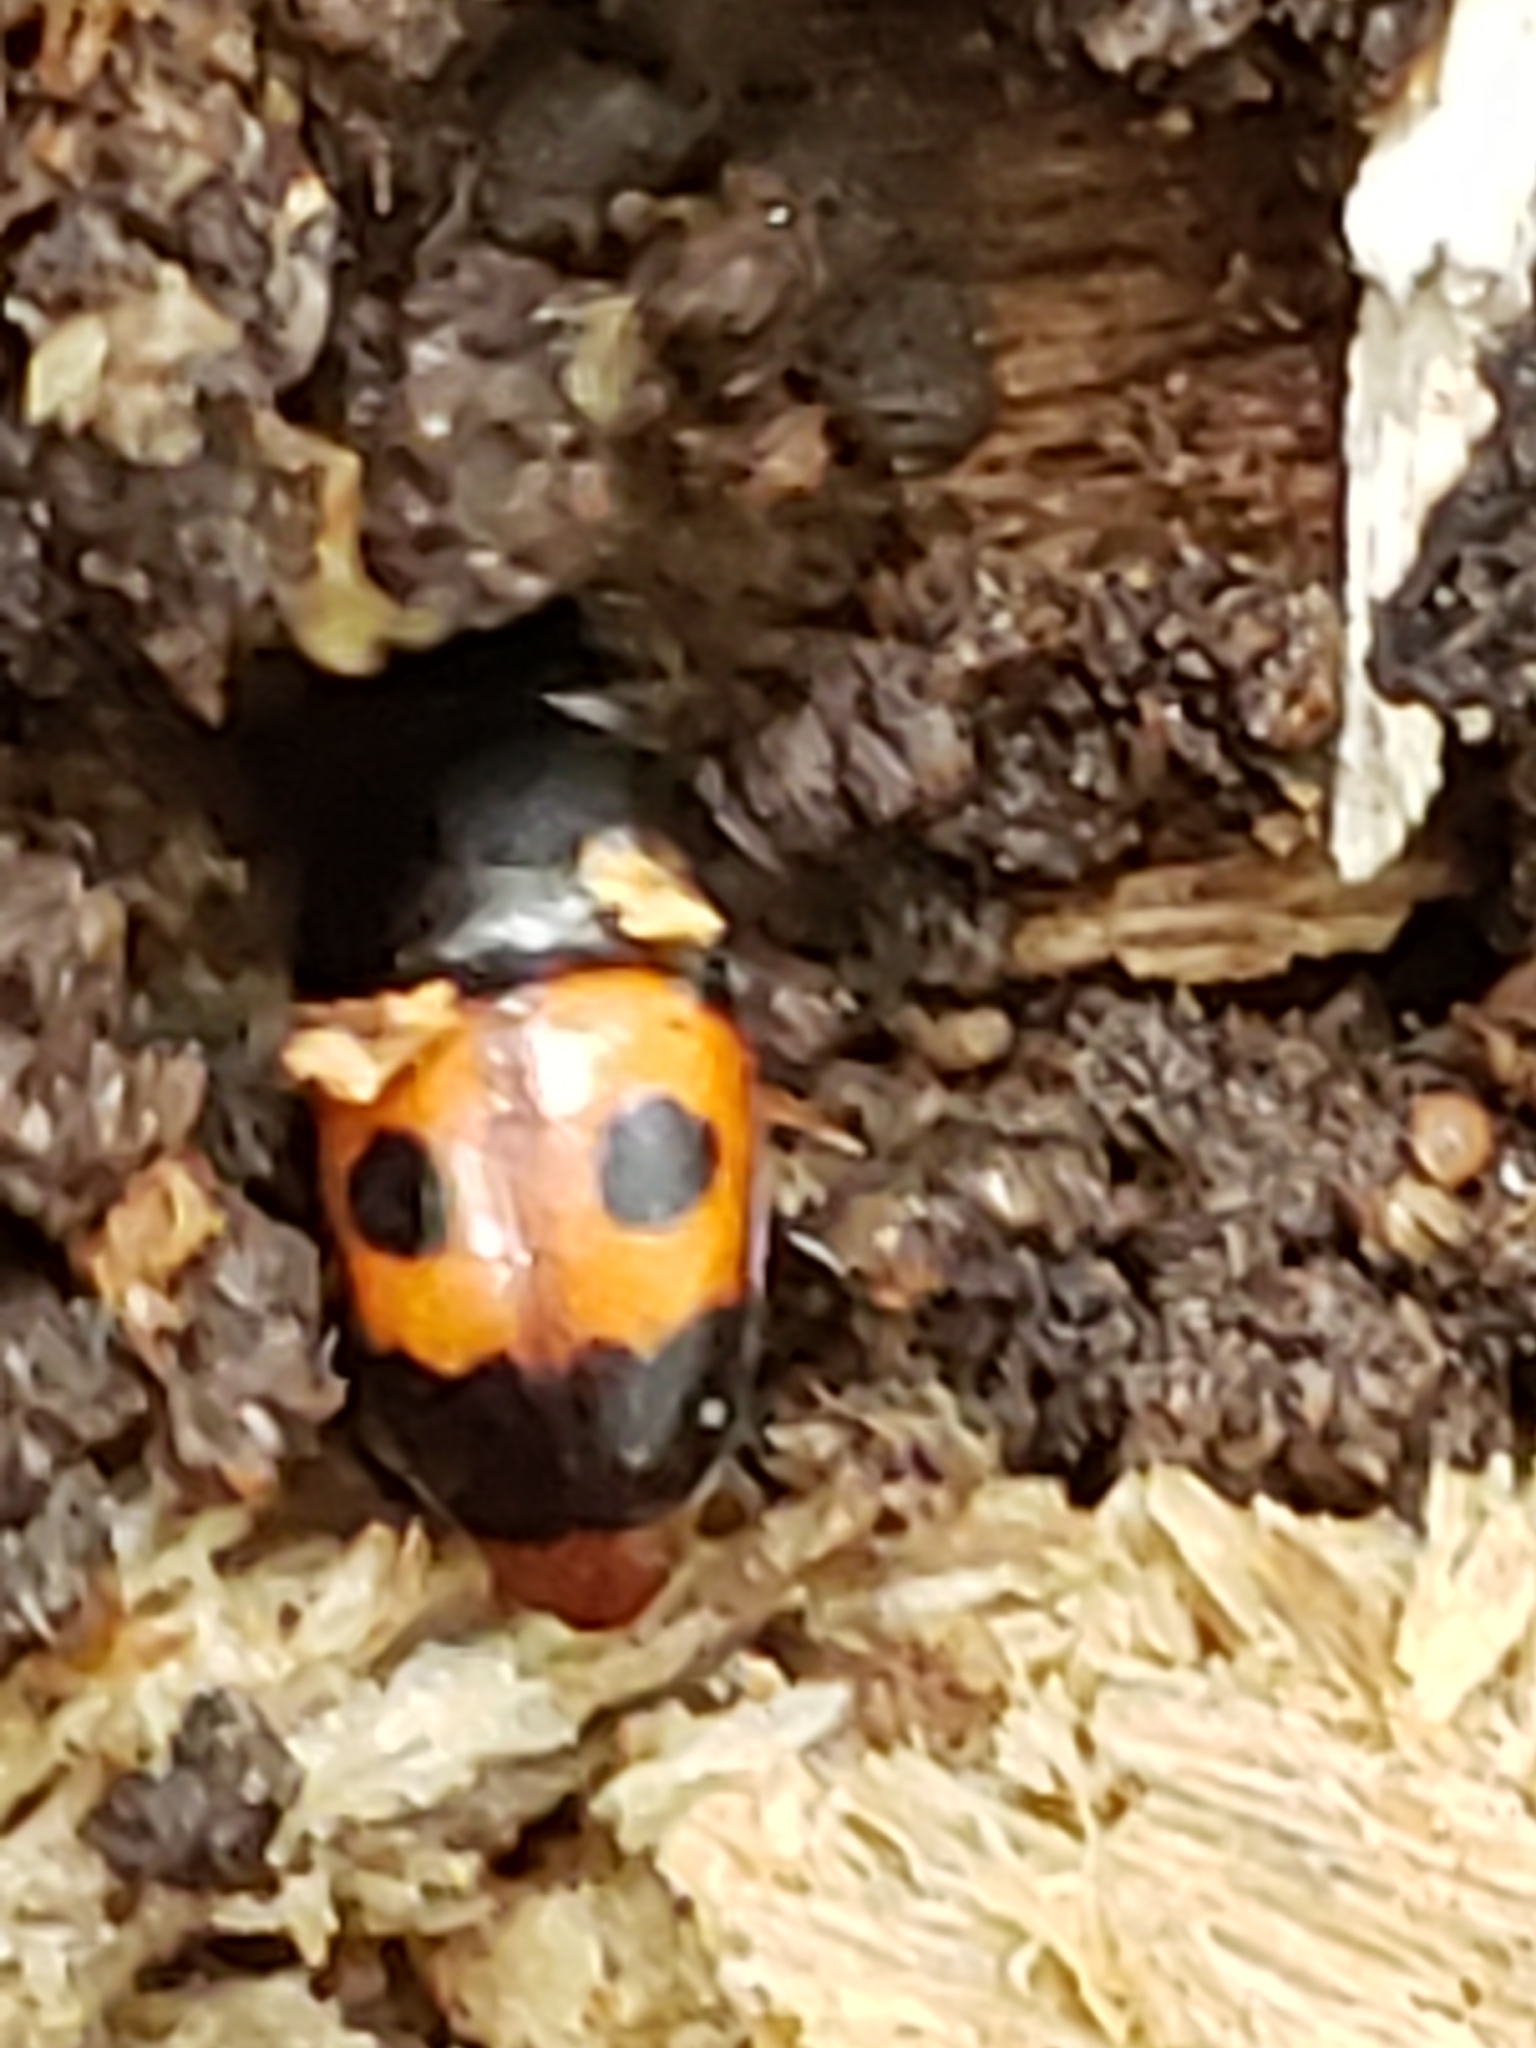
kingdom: Animalia
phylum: Arthropoda
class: Insecta
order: Coleoptera
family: Nitidulidae
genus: Glischrochilus
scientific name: Glischrochilus sanguinolentus
